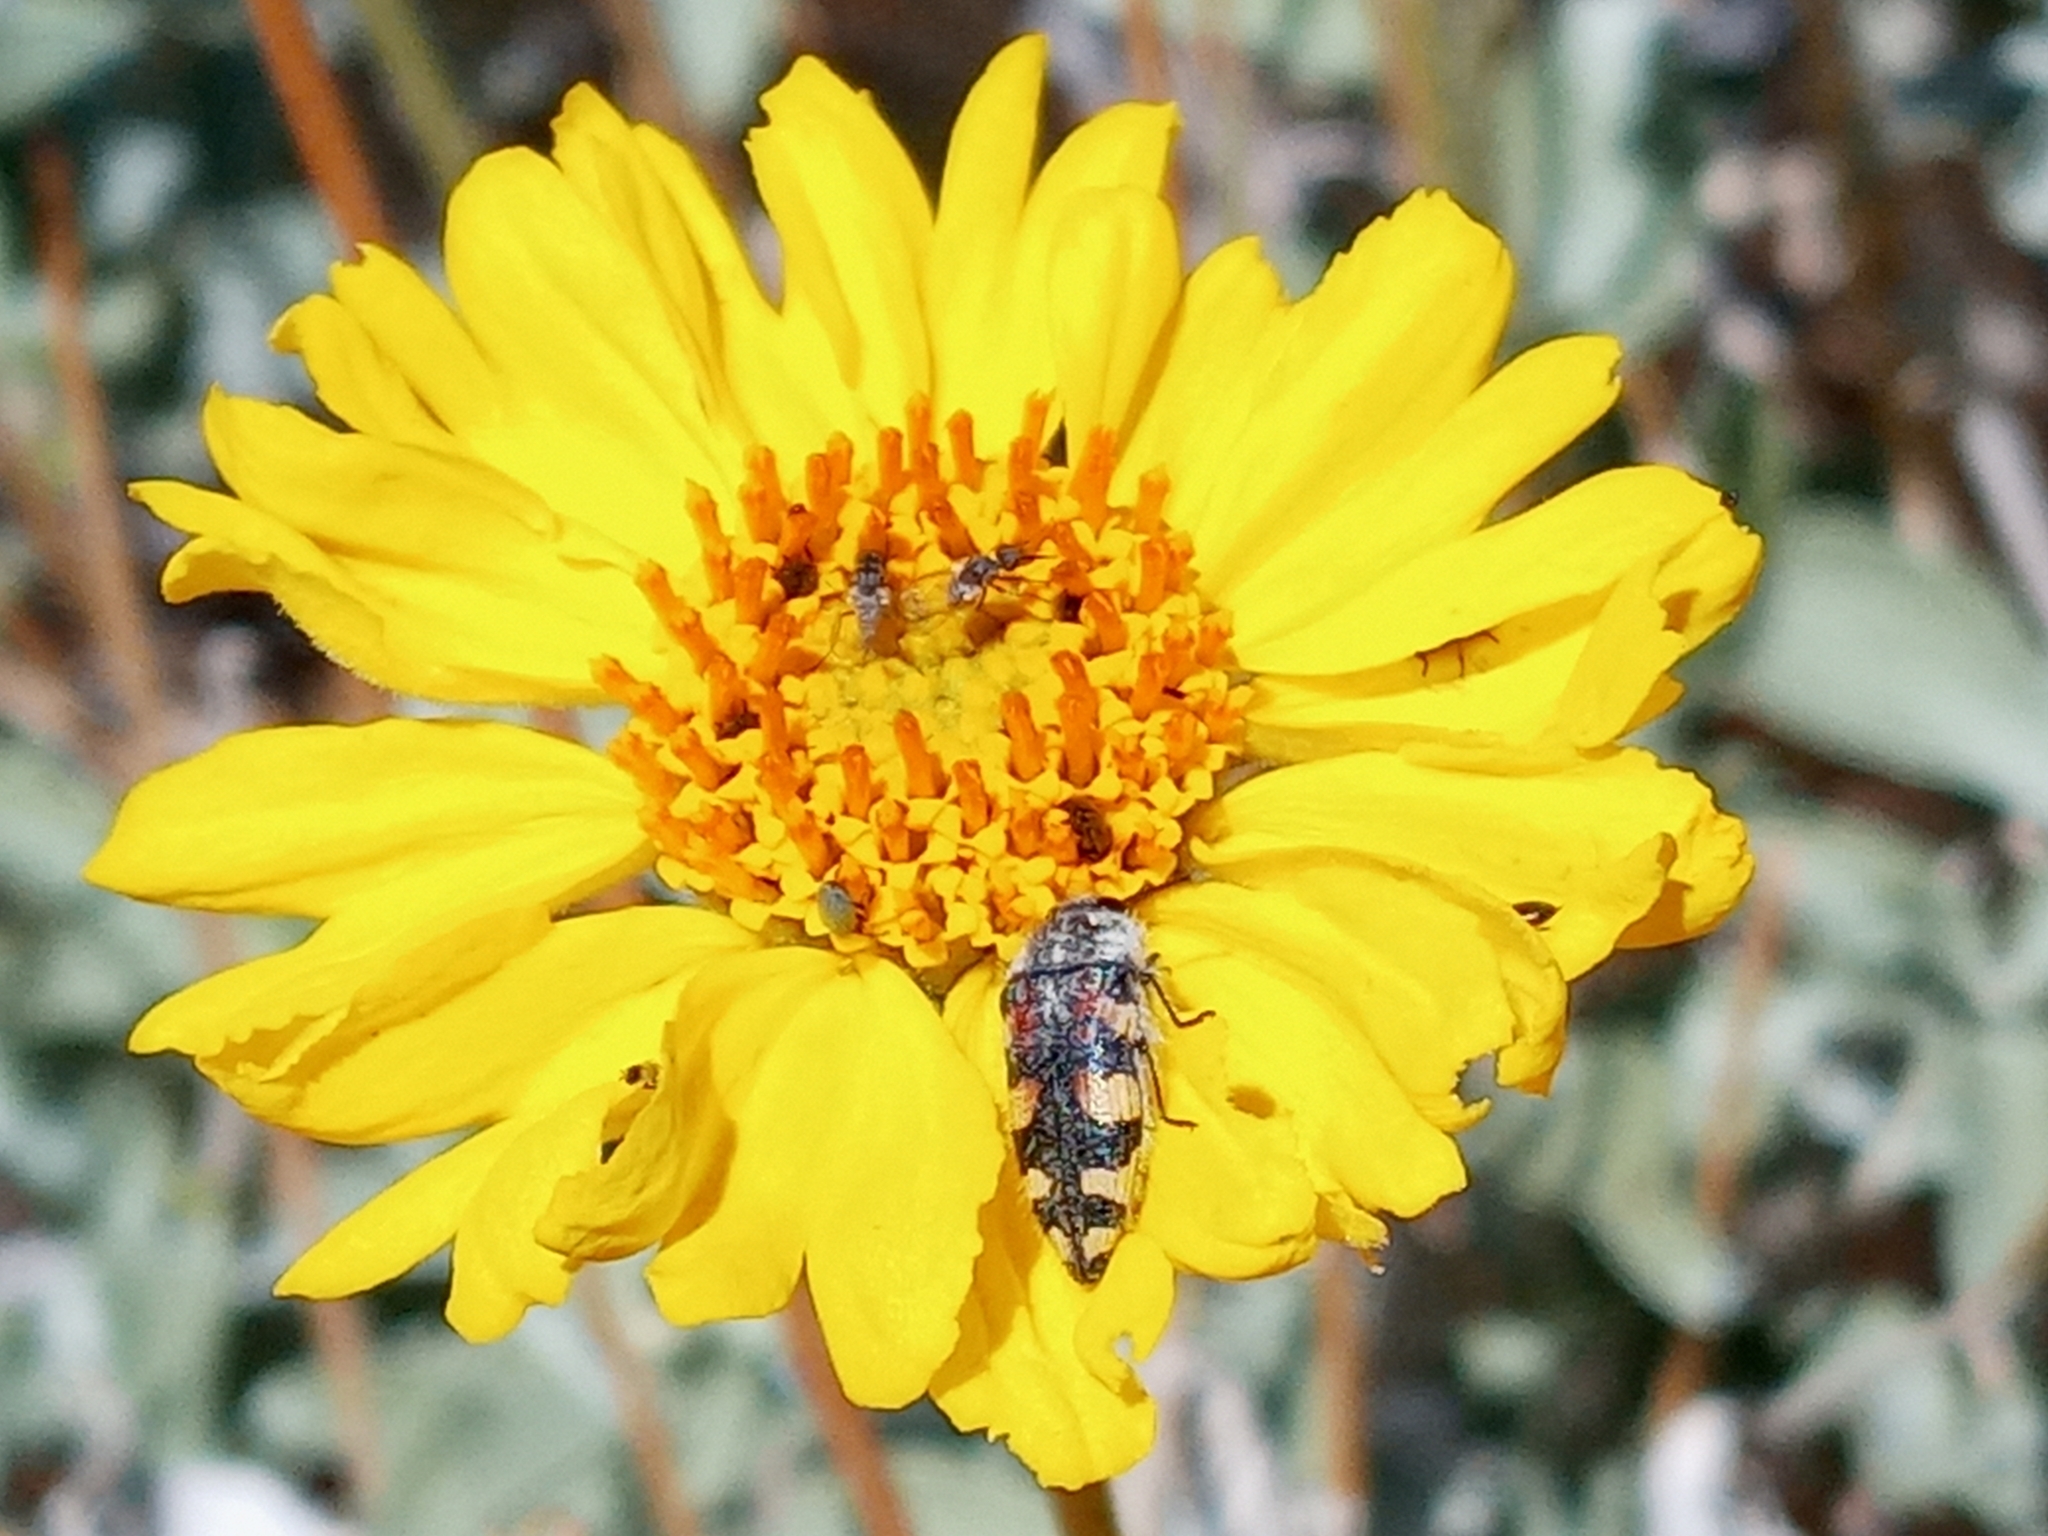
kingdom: Animalia
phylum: Arthropoda
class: Insecta
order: Coleoptera
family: Buprestidae
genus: Acmaeodera
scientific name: Acmaeodera tuta
